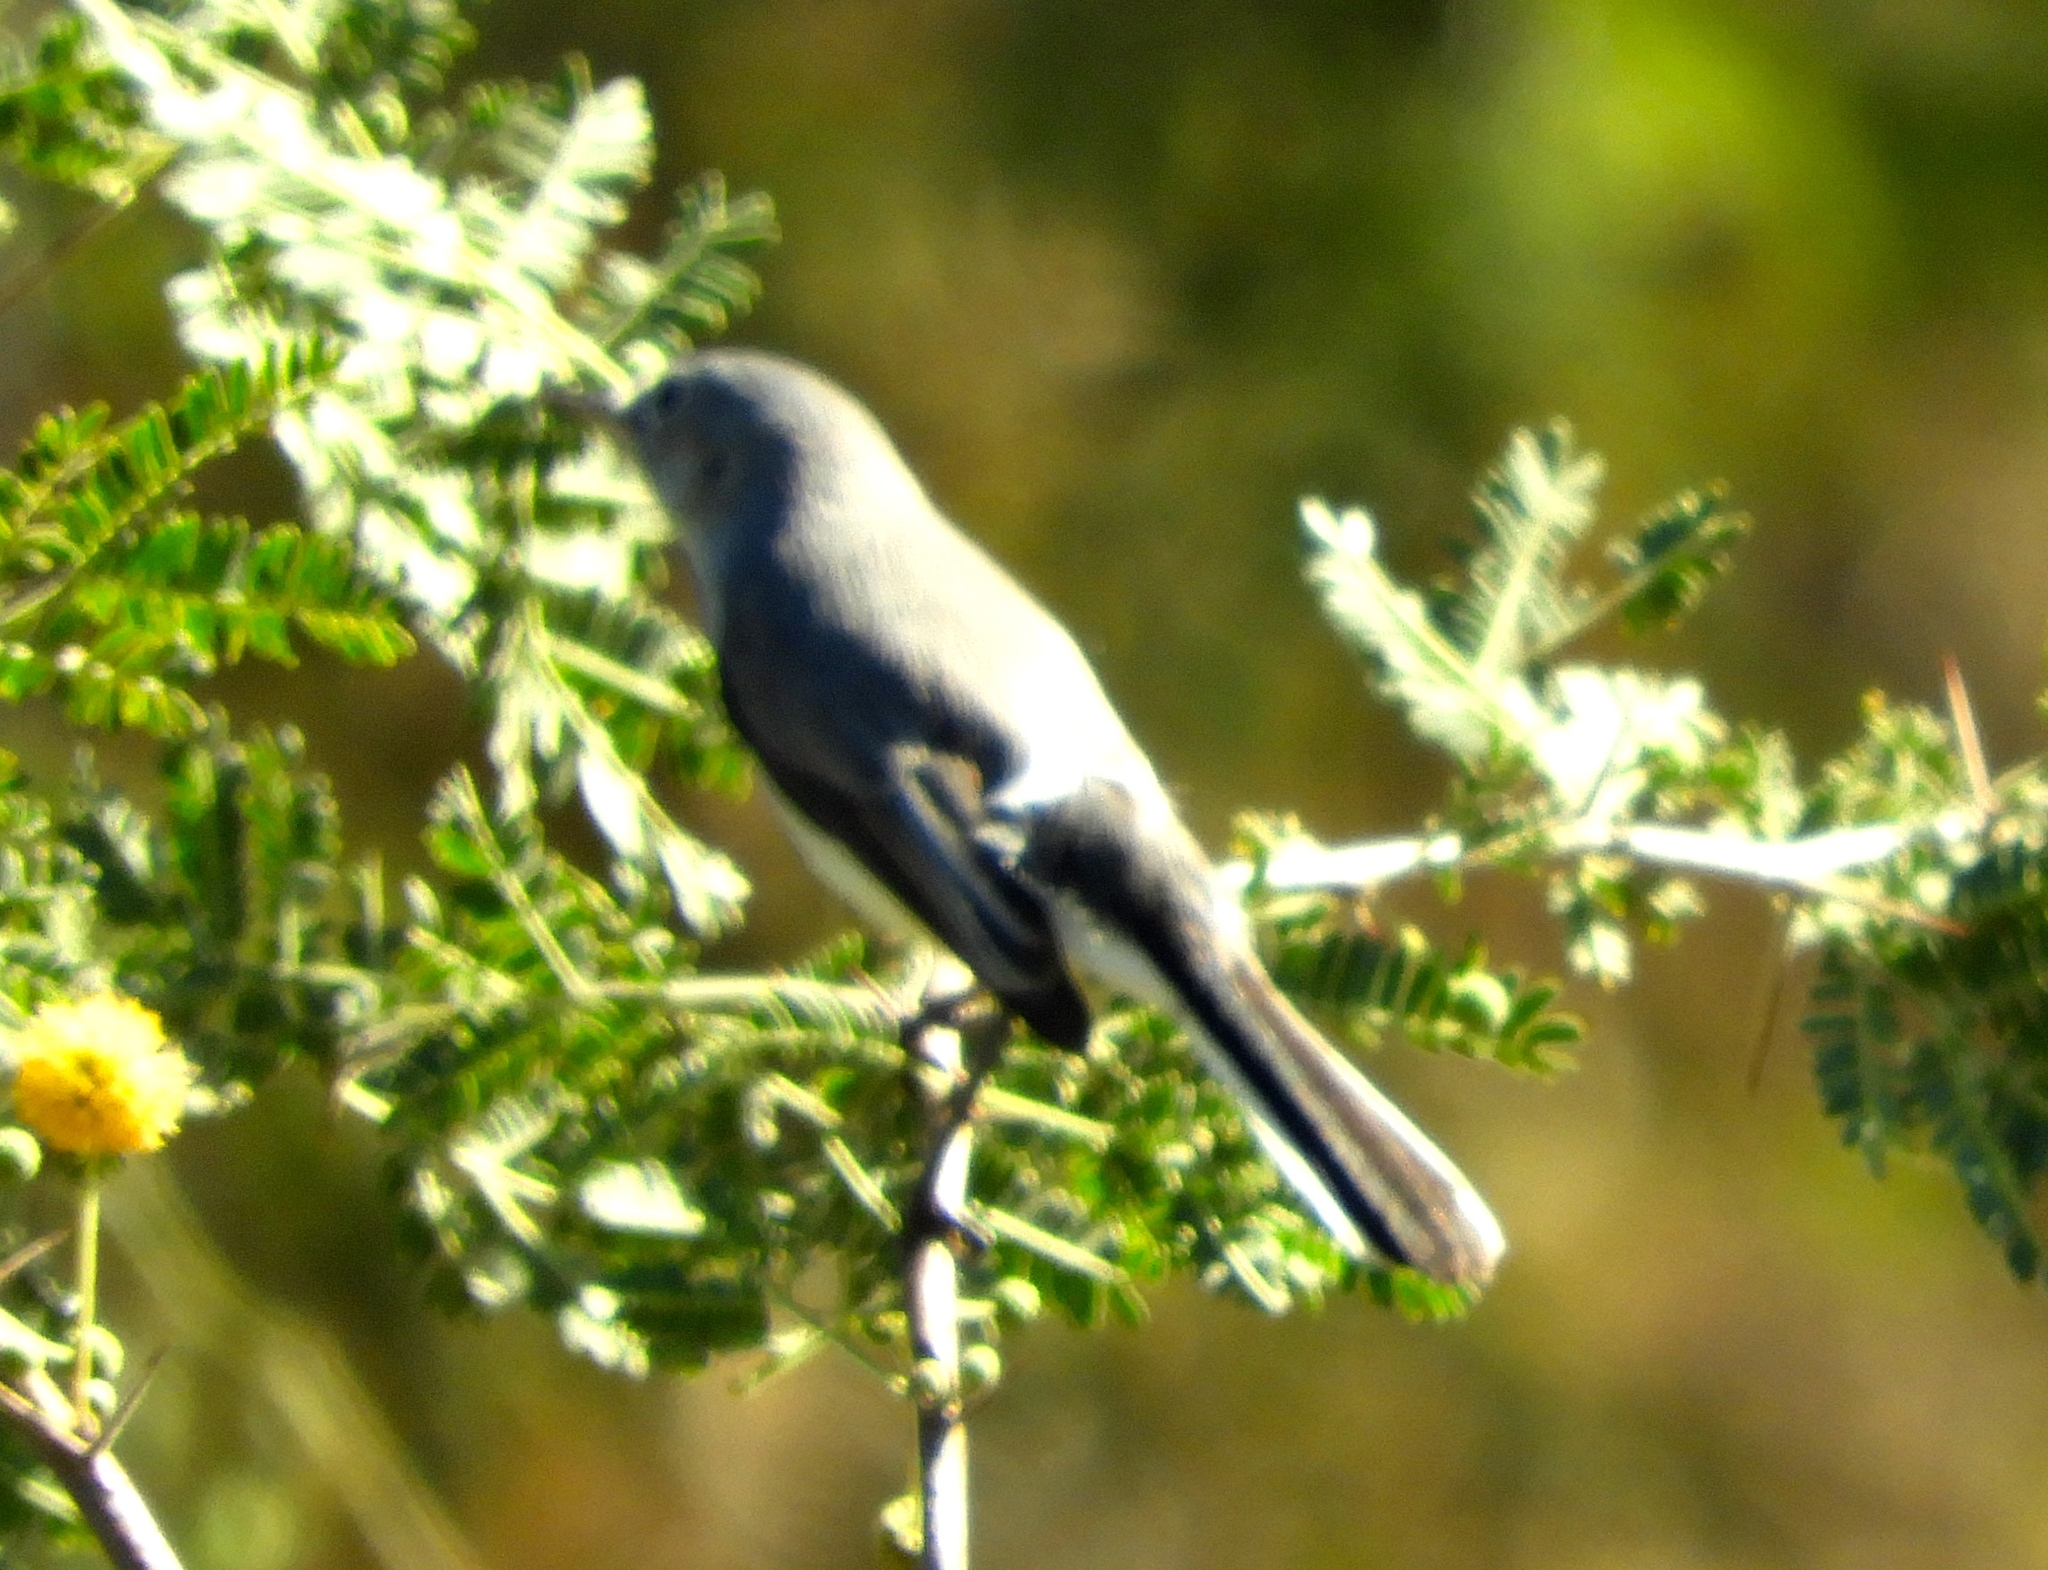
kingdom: Animalia
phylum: Chordata
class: Aves
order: Passeriformes
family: Polioptilidae
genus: Polioptila
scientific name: Polioptila
